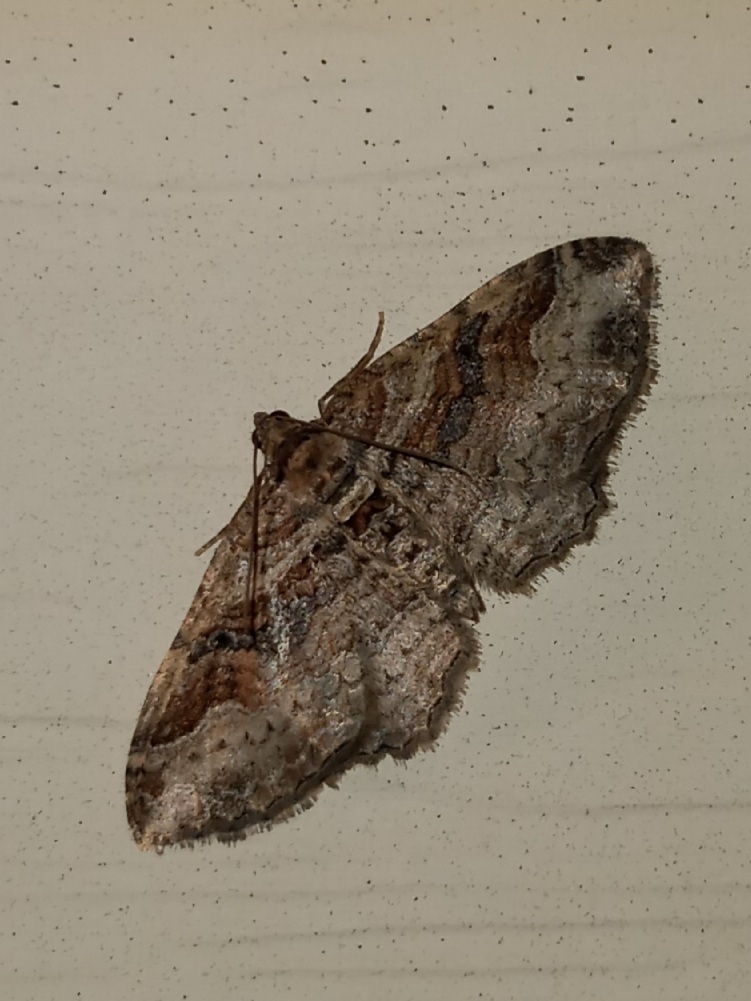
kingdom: Animalia
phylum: Arthropoda
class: Insecta
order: Lepidoptera
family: Geometridae
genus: Costaconvexa
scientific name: Costaconvexa centrostrigaria
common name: Bent-line carpet
